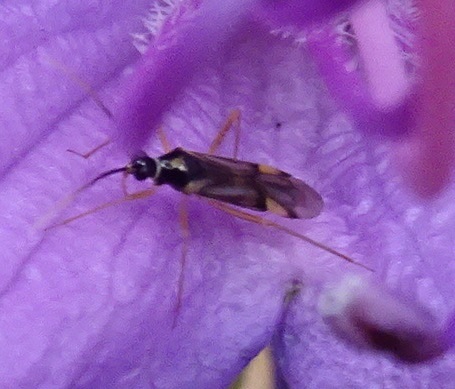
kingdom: Animalia
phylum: Arthropoda
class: Insecta
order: Hemiptera
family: Miridae
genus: Tupiocoris
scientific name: Tupiocoris rhododendri
